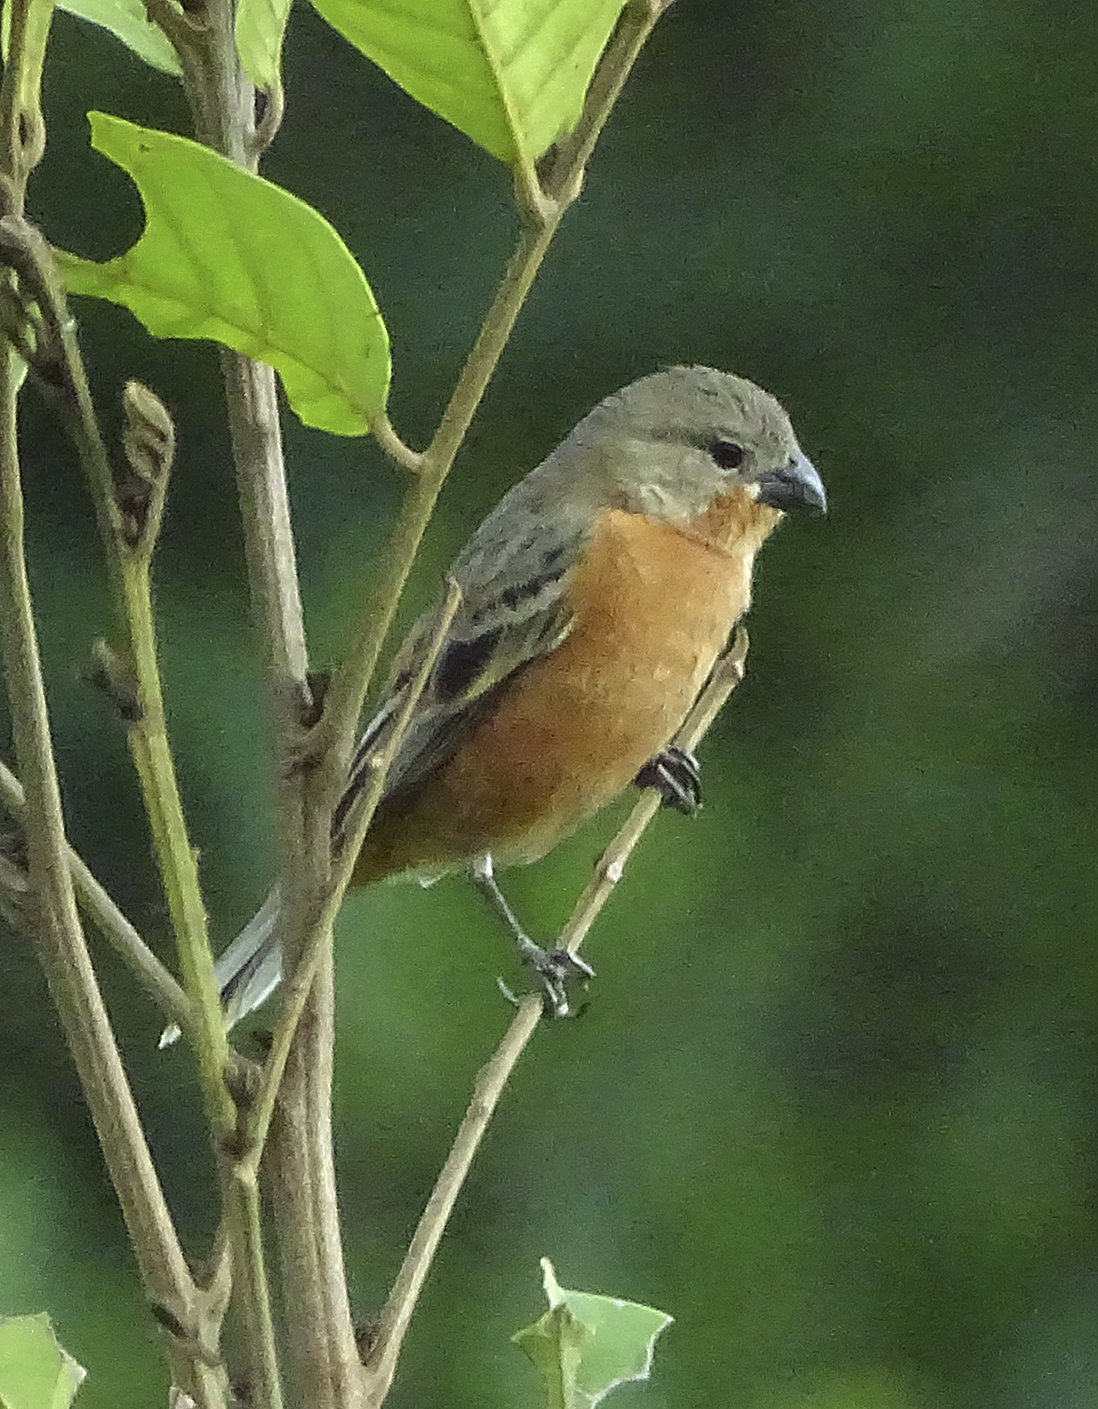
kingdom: Animalia
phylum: Chordata
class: Aves
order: Passeriformes
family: Thraupidae
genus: Sporophila
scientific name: Sporophila minuta
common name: Ruddy-breasted seedeater
